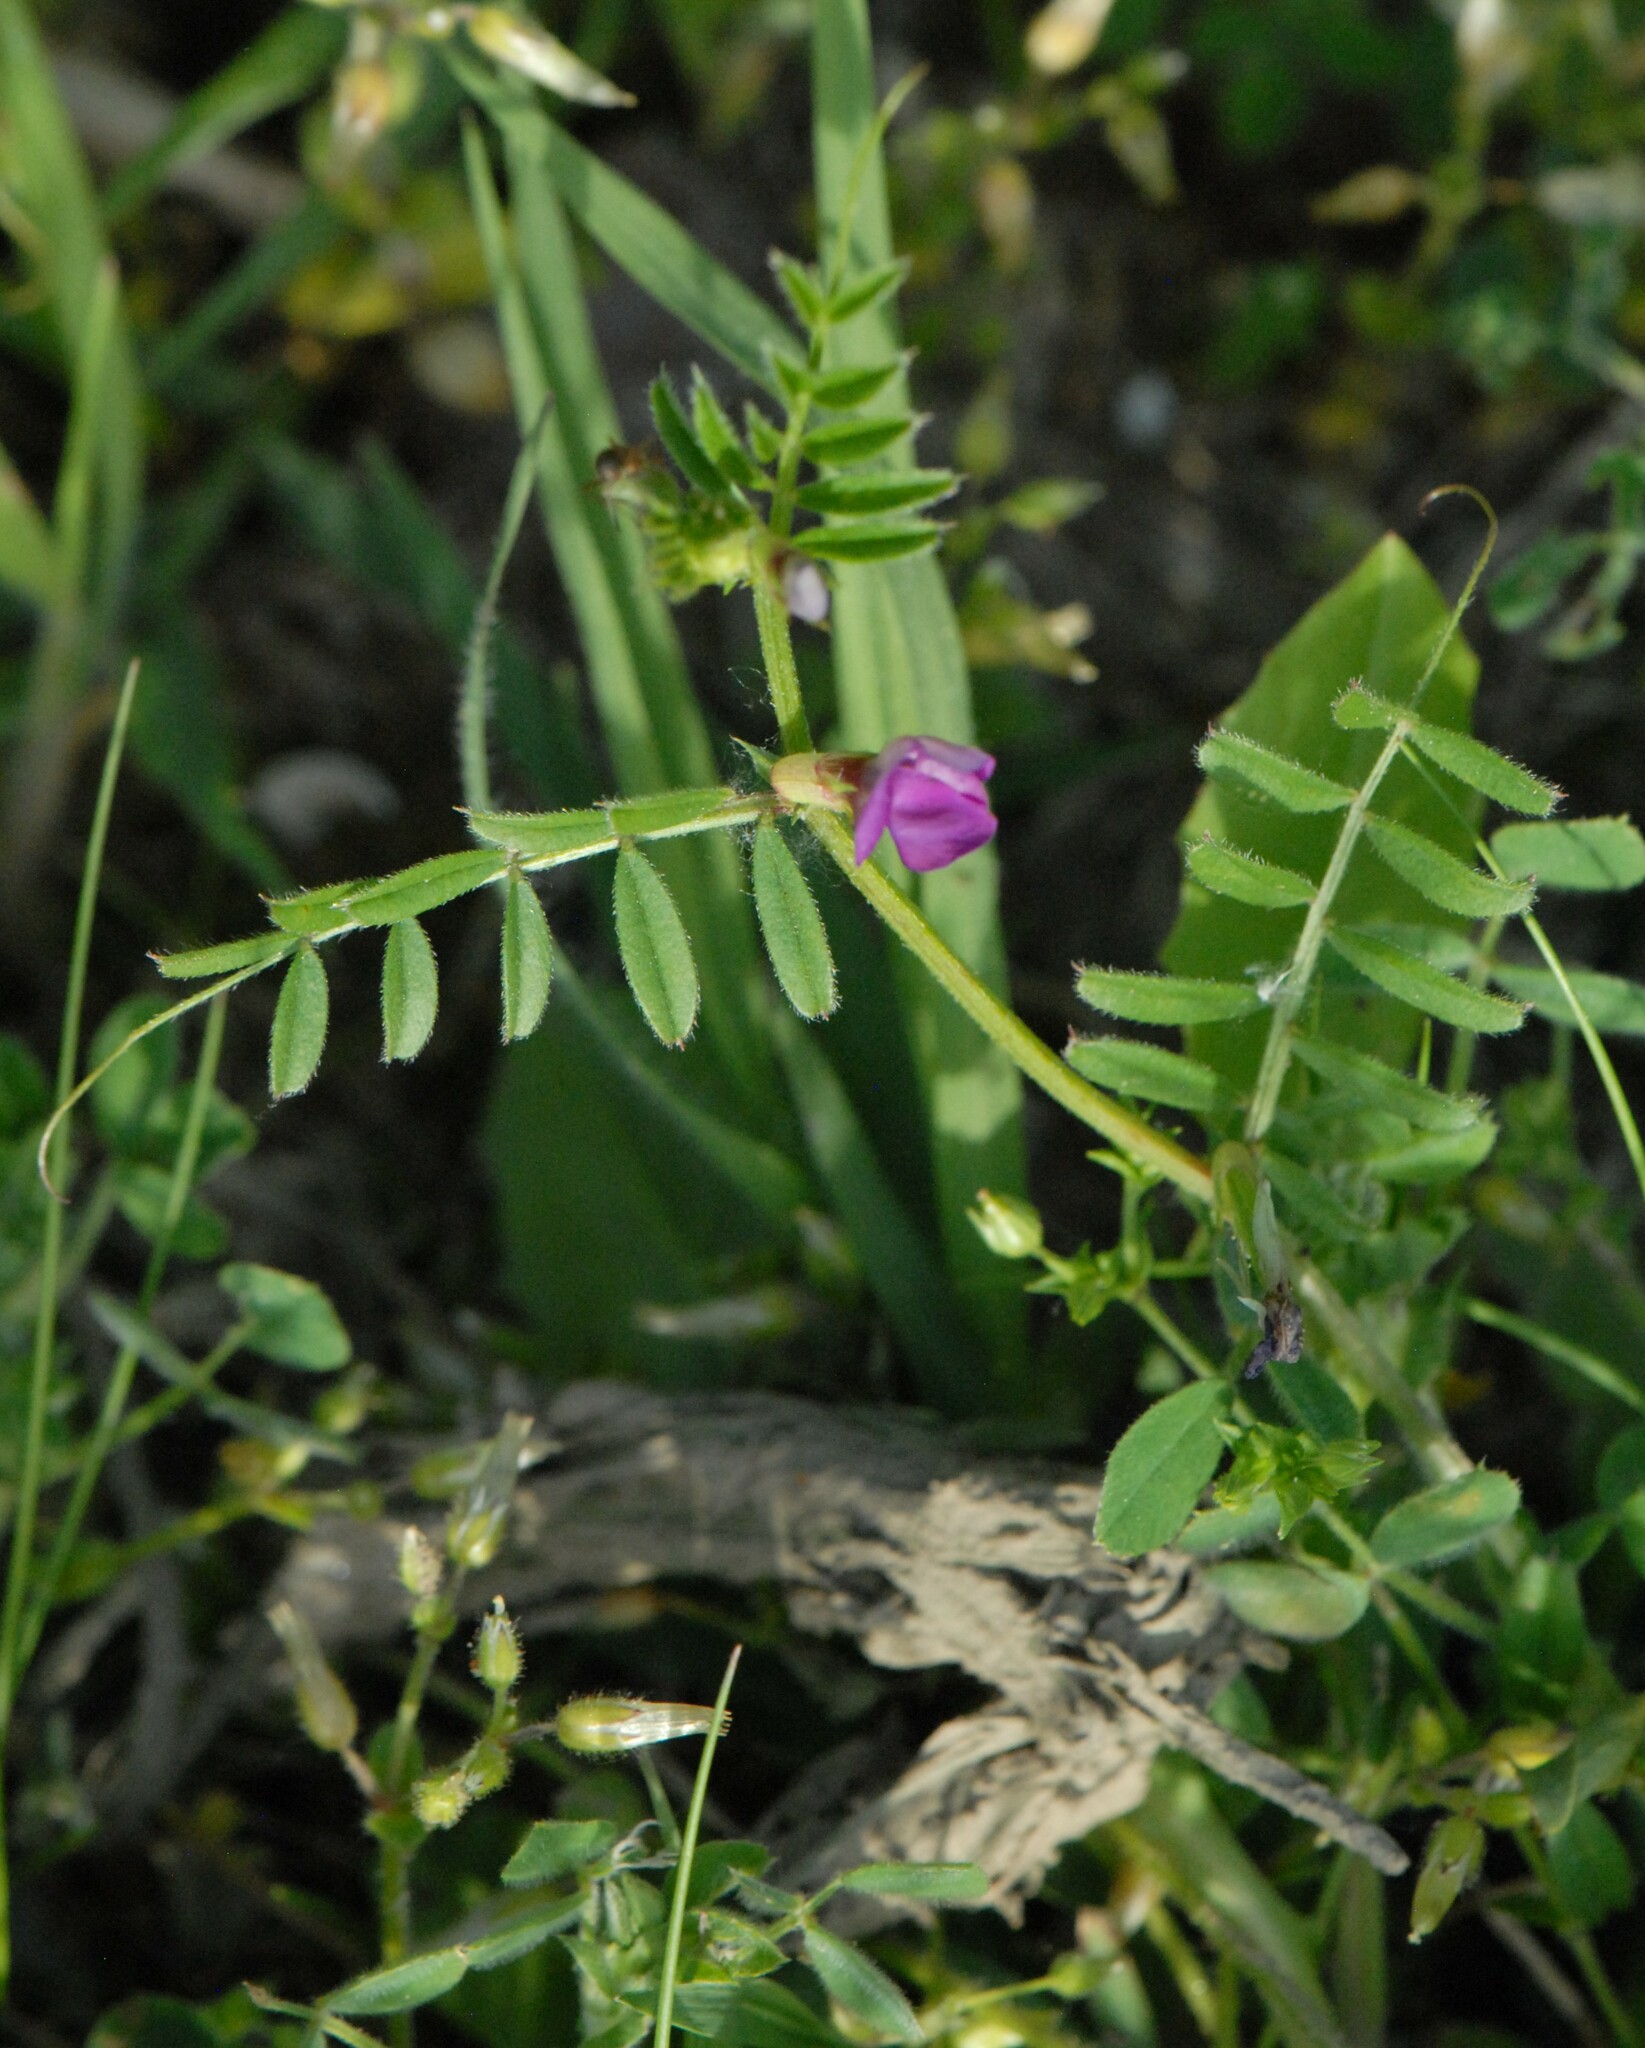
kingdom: Plantae
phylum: Tracheophyta
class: Magnoliopsida
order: Fabales
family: Fabaceae
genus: Vicia
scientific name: Vicia sativa
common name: Garden vetch
